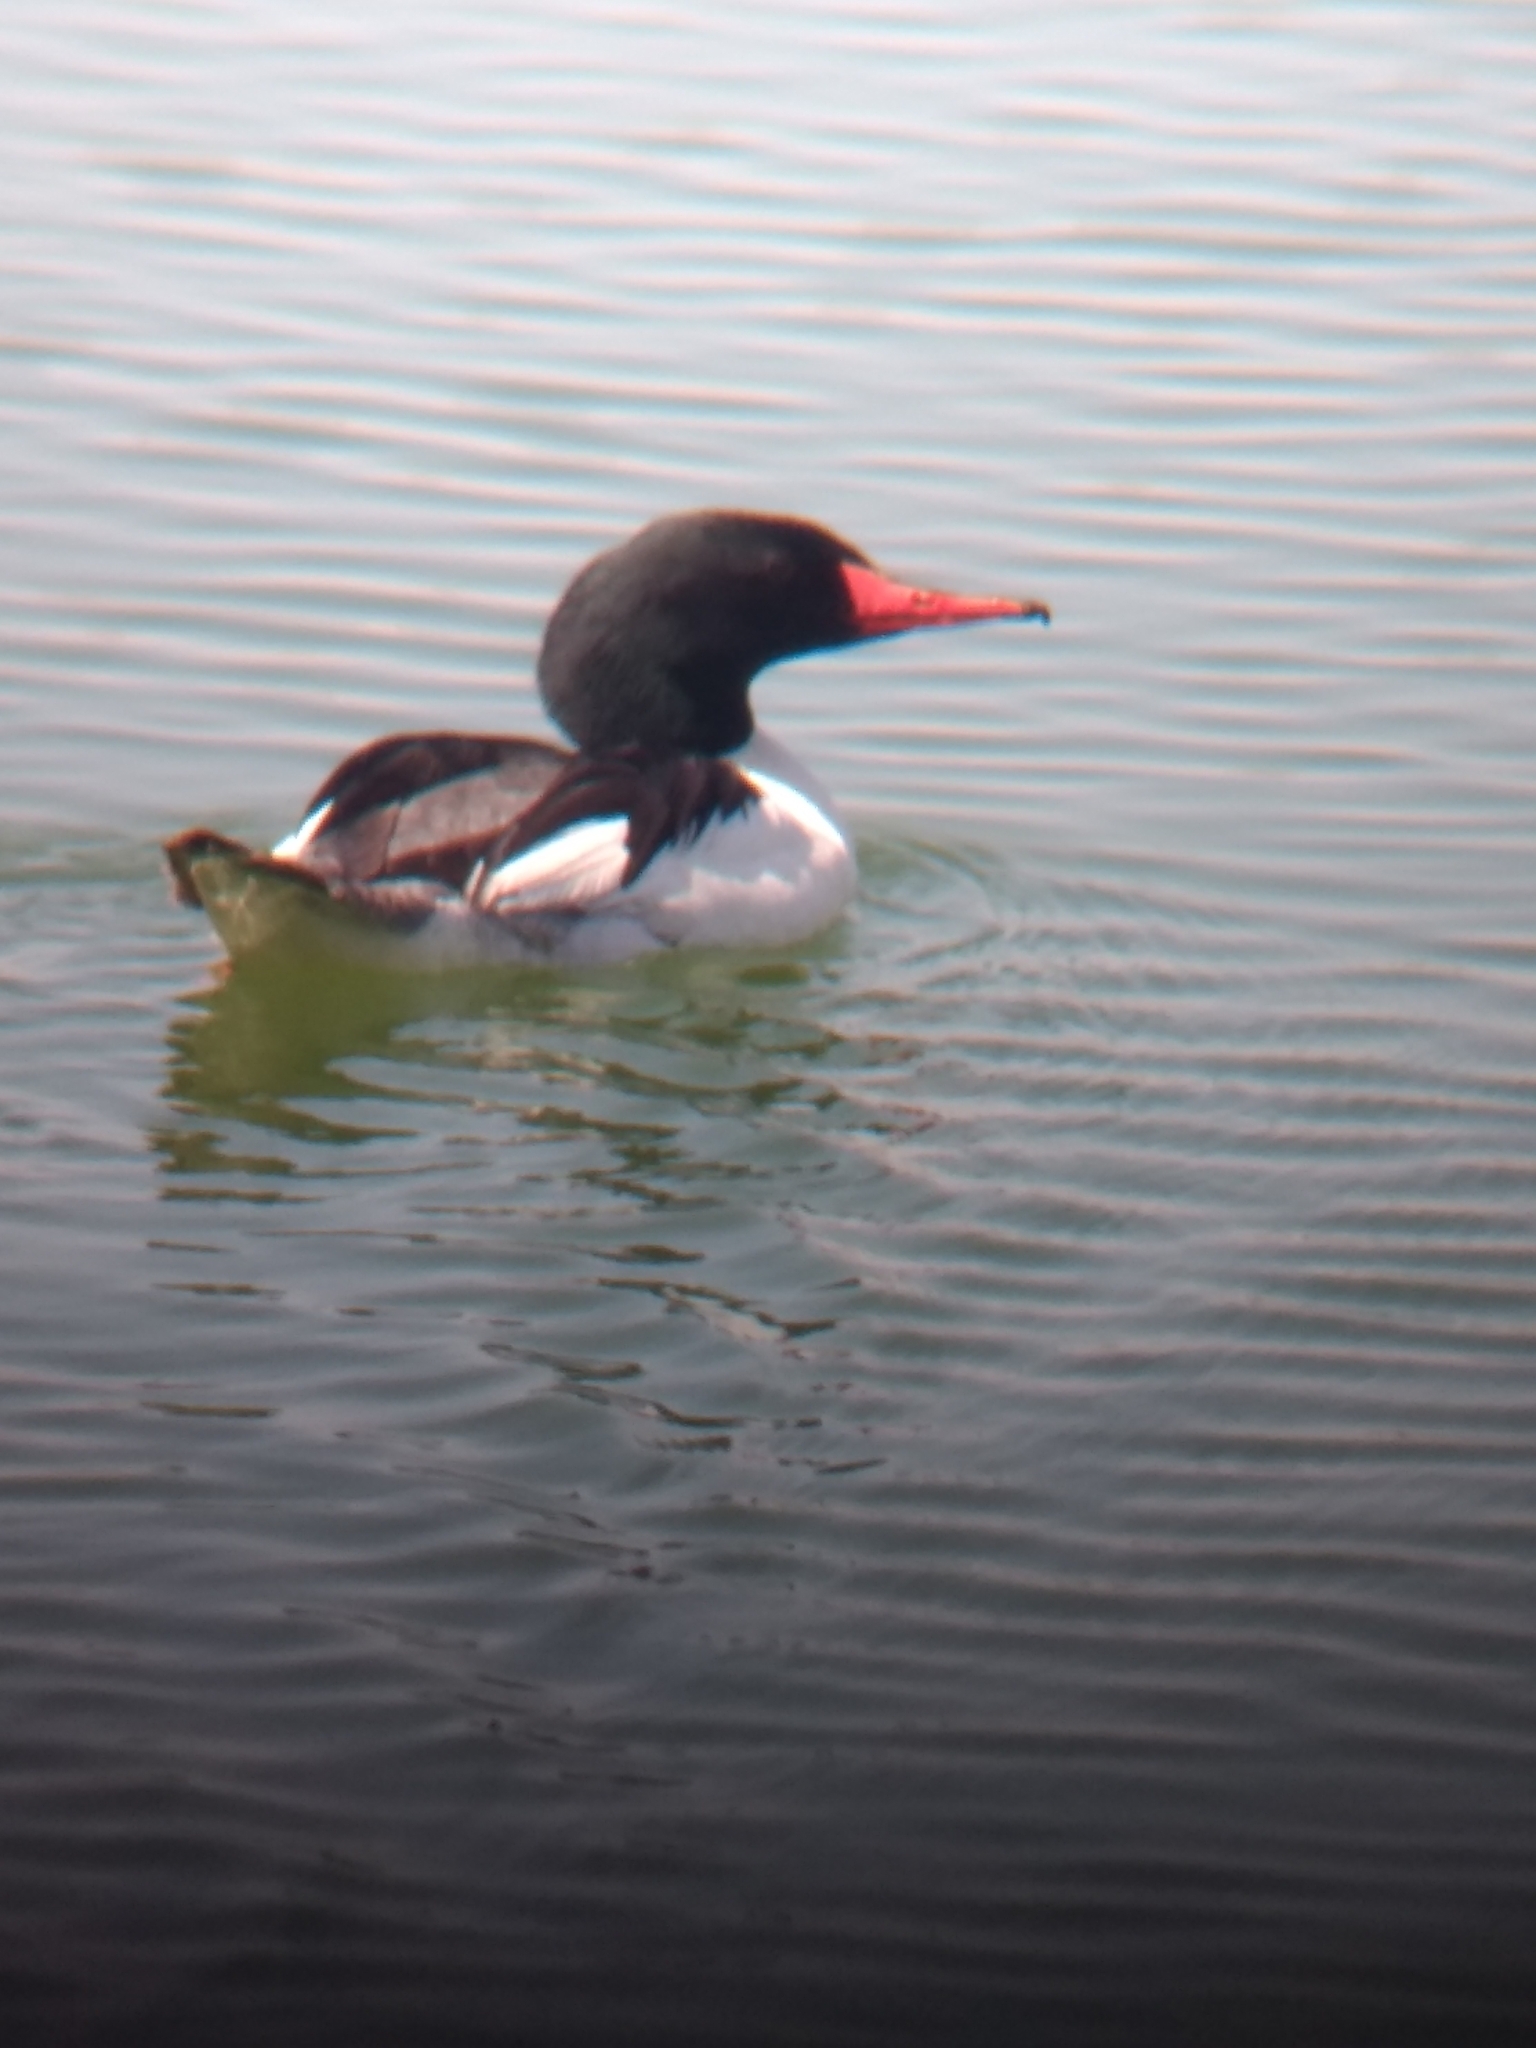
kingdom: Animalia
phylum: Chordata
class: Aves
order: Anseriformes
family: Anatidae
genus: Mergus
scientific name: Mergus merganser
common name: Common merganser
